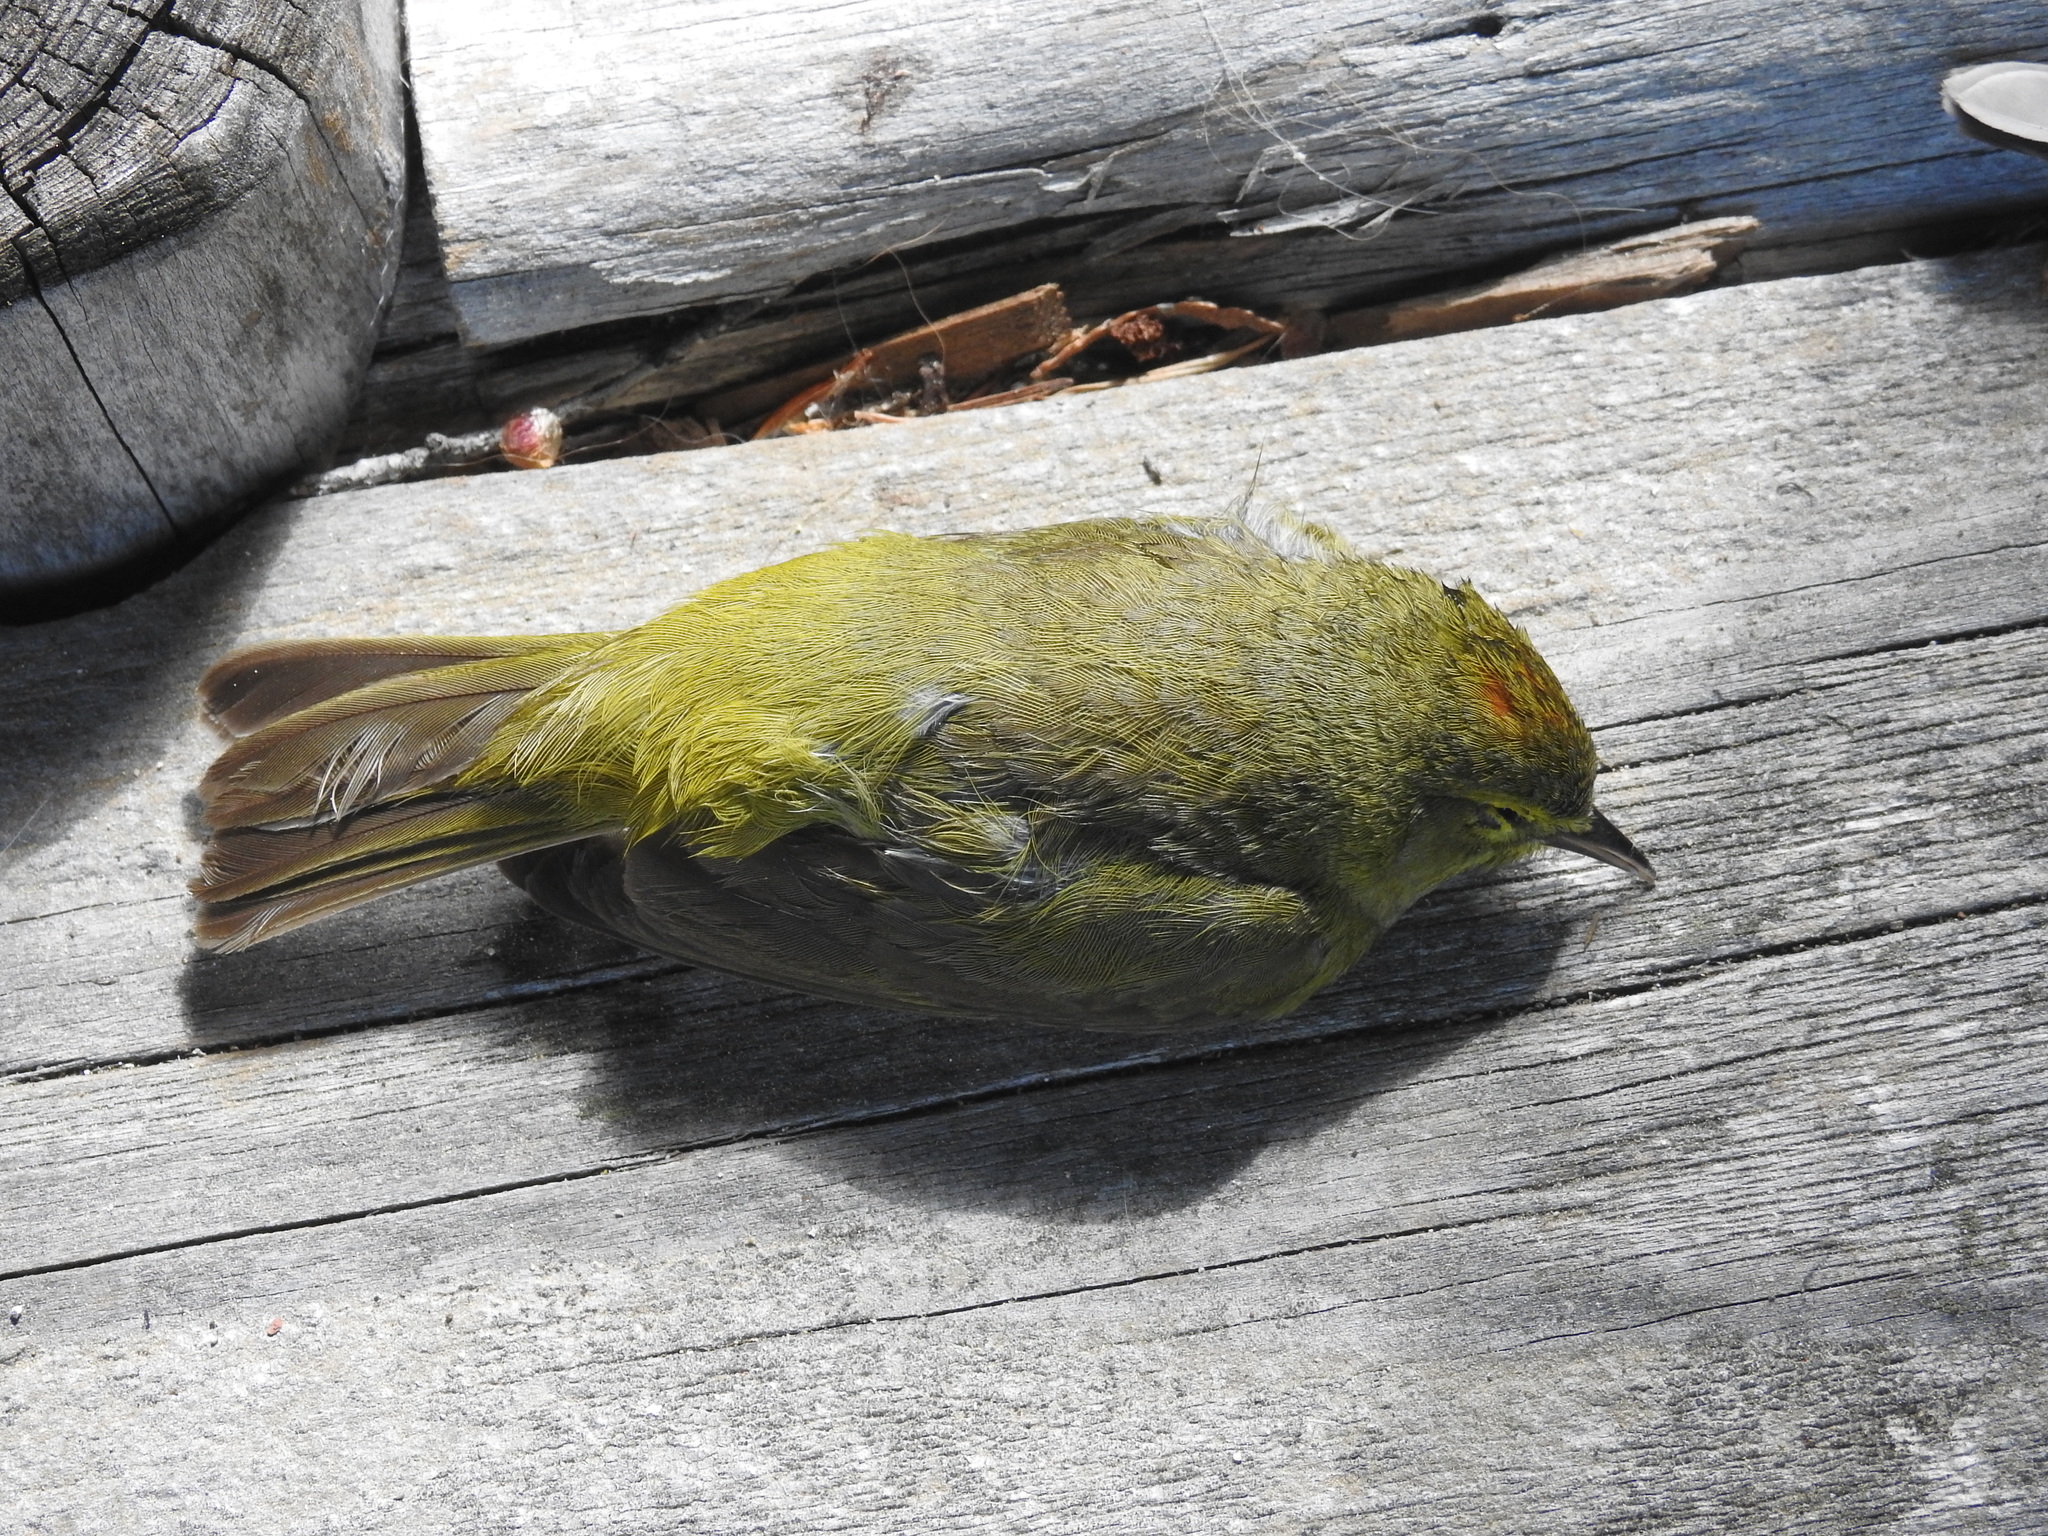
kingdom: Animalia
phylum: Chordata
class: Aves
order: Passeriformes
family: Parulidae
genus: Leiothlypis
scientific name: Leiothlypis celata
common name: Orange-crowned warbler
